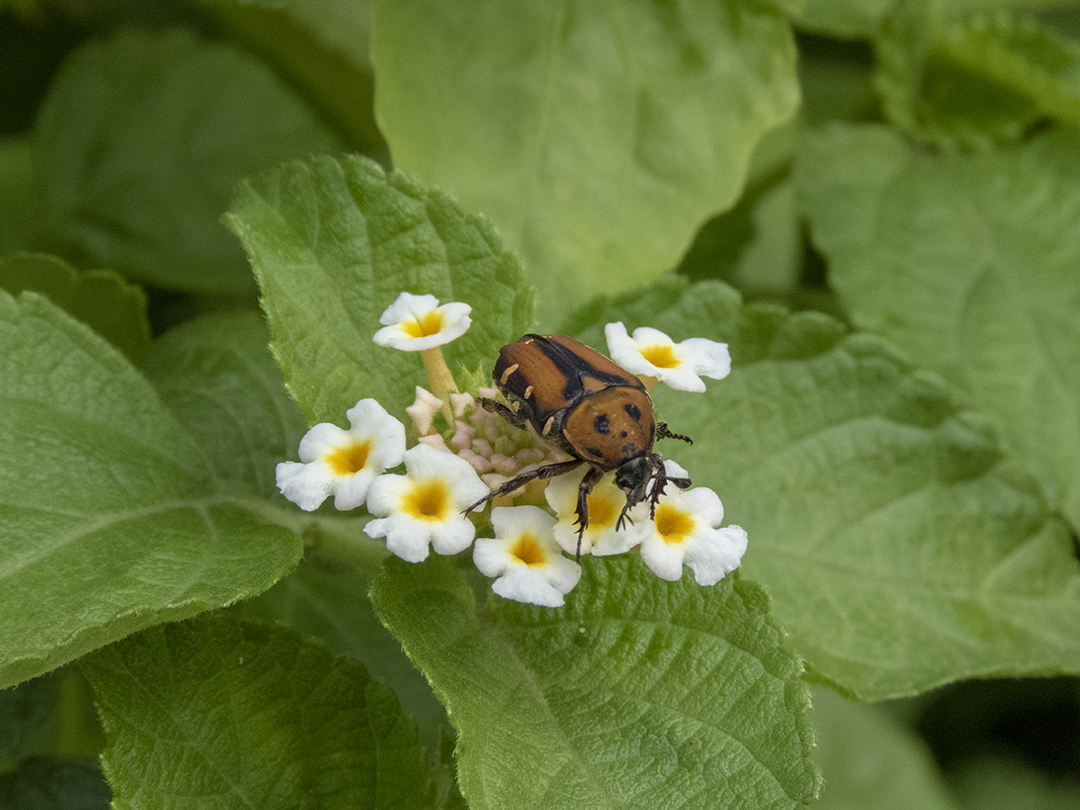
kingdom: Animalia
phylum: Arthropoda
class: Insecta
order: Coleoptera
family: Scarabaeidae
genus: Gametis
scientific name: Gametis versicolor
